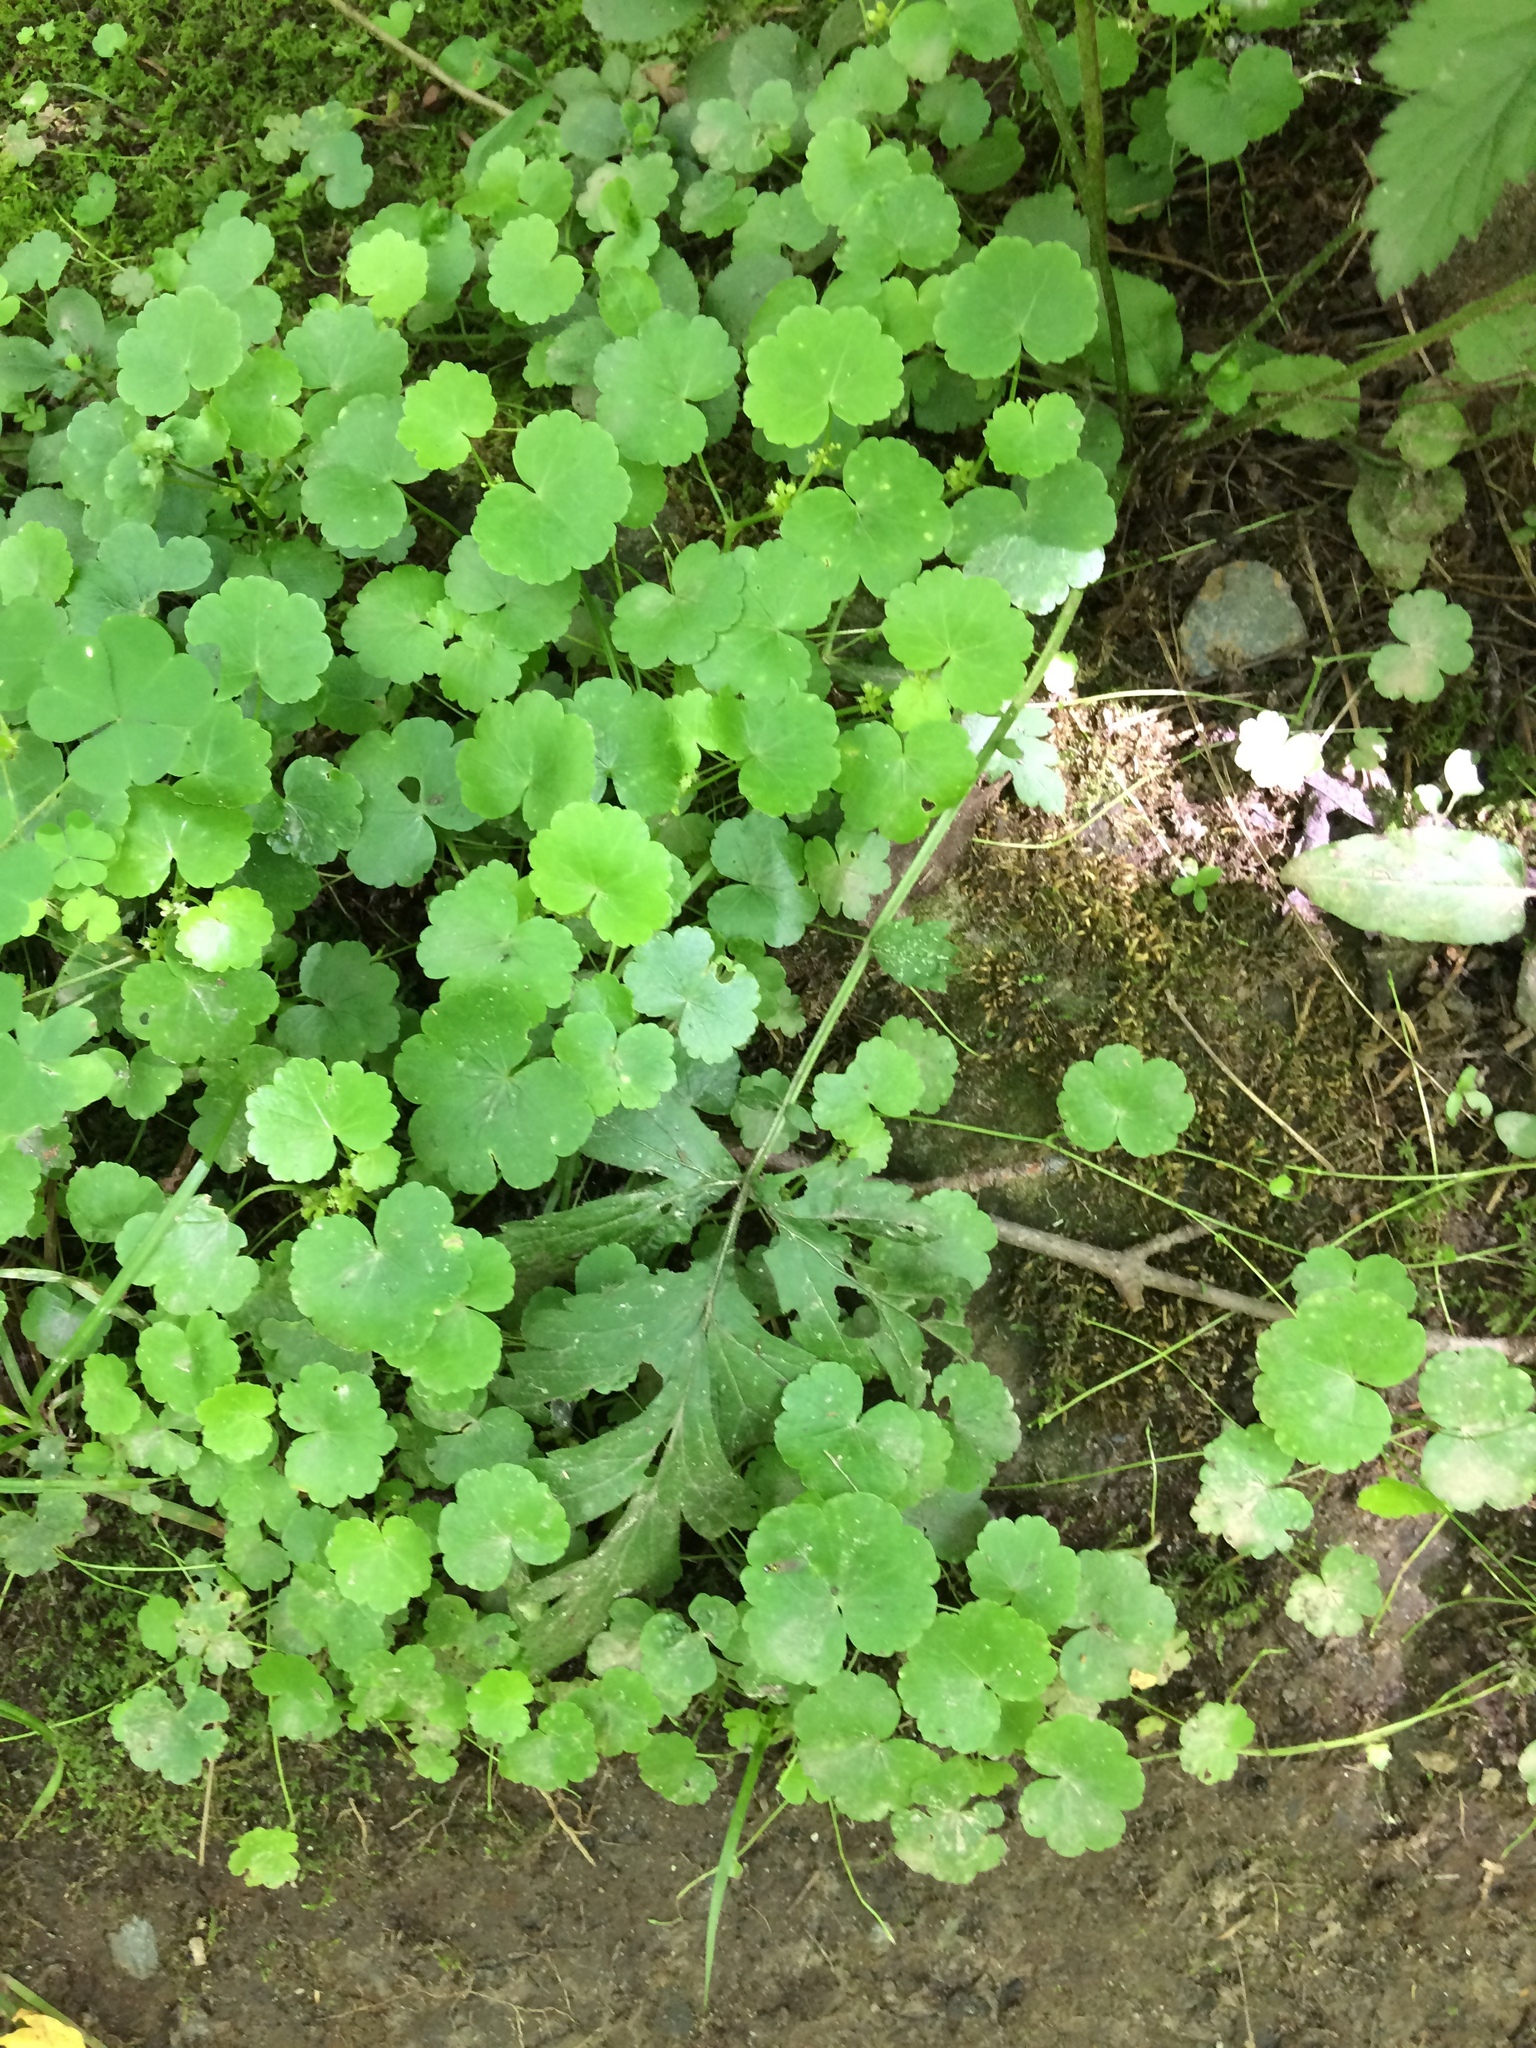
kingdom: Plantae
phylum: Tracheophyta
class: Magnoliopsida
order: Apiales
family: Araliaceae
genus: Hydrocotyle
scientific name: Hydrocotyle americana
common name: American water-pennywort
